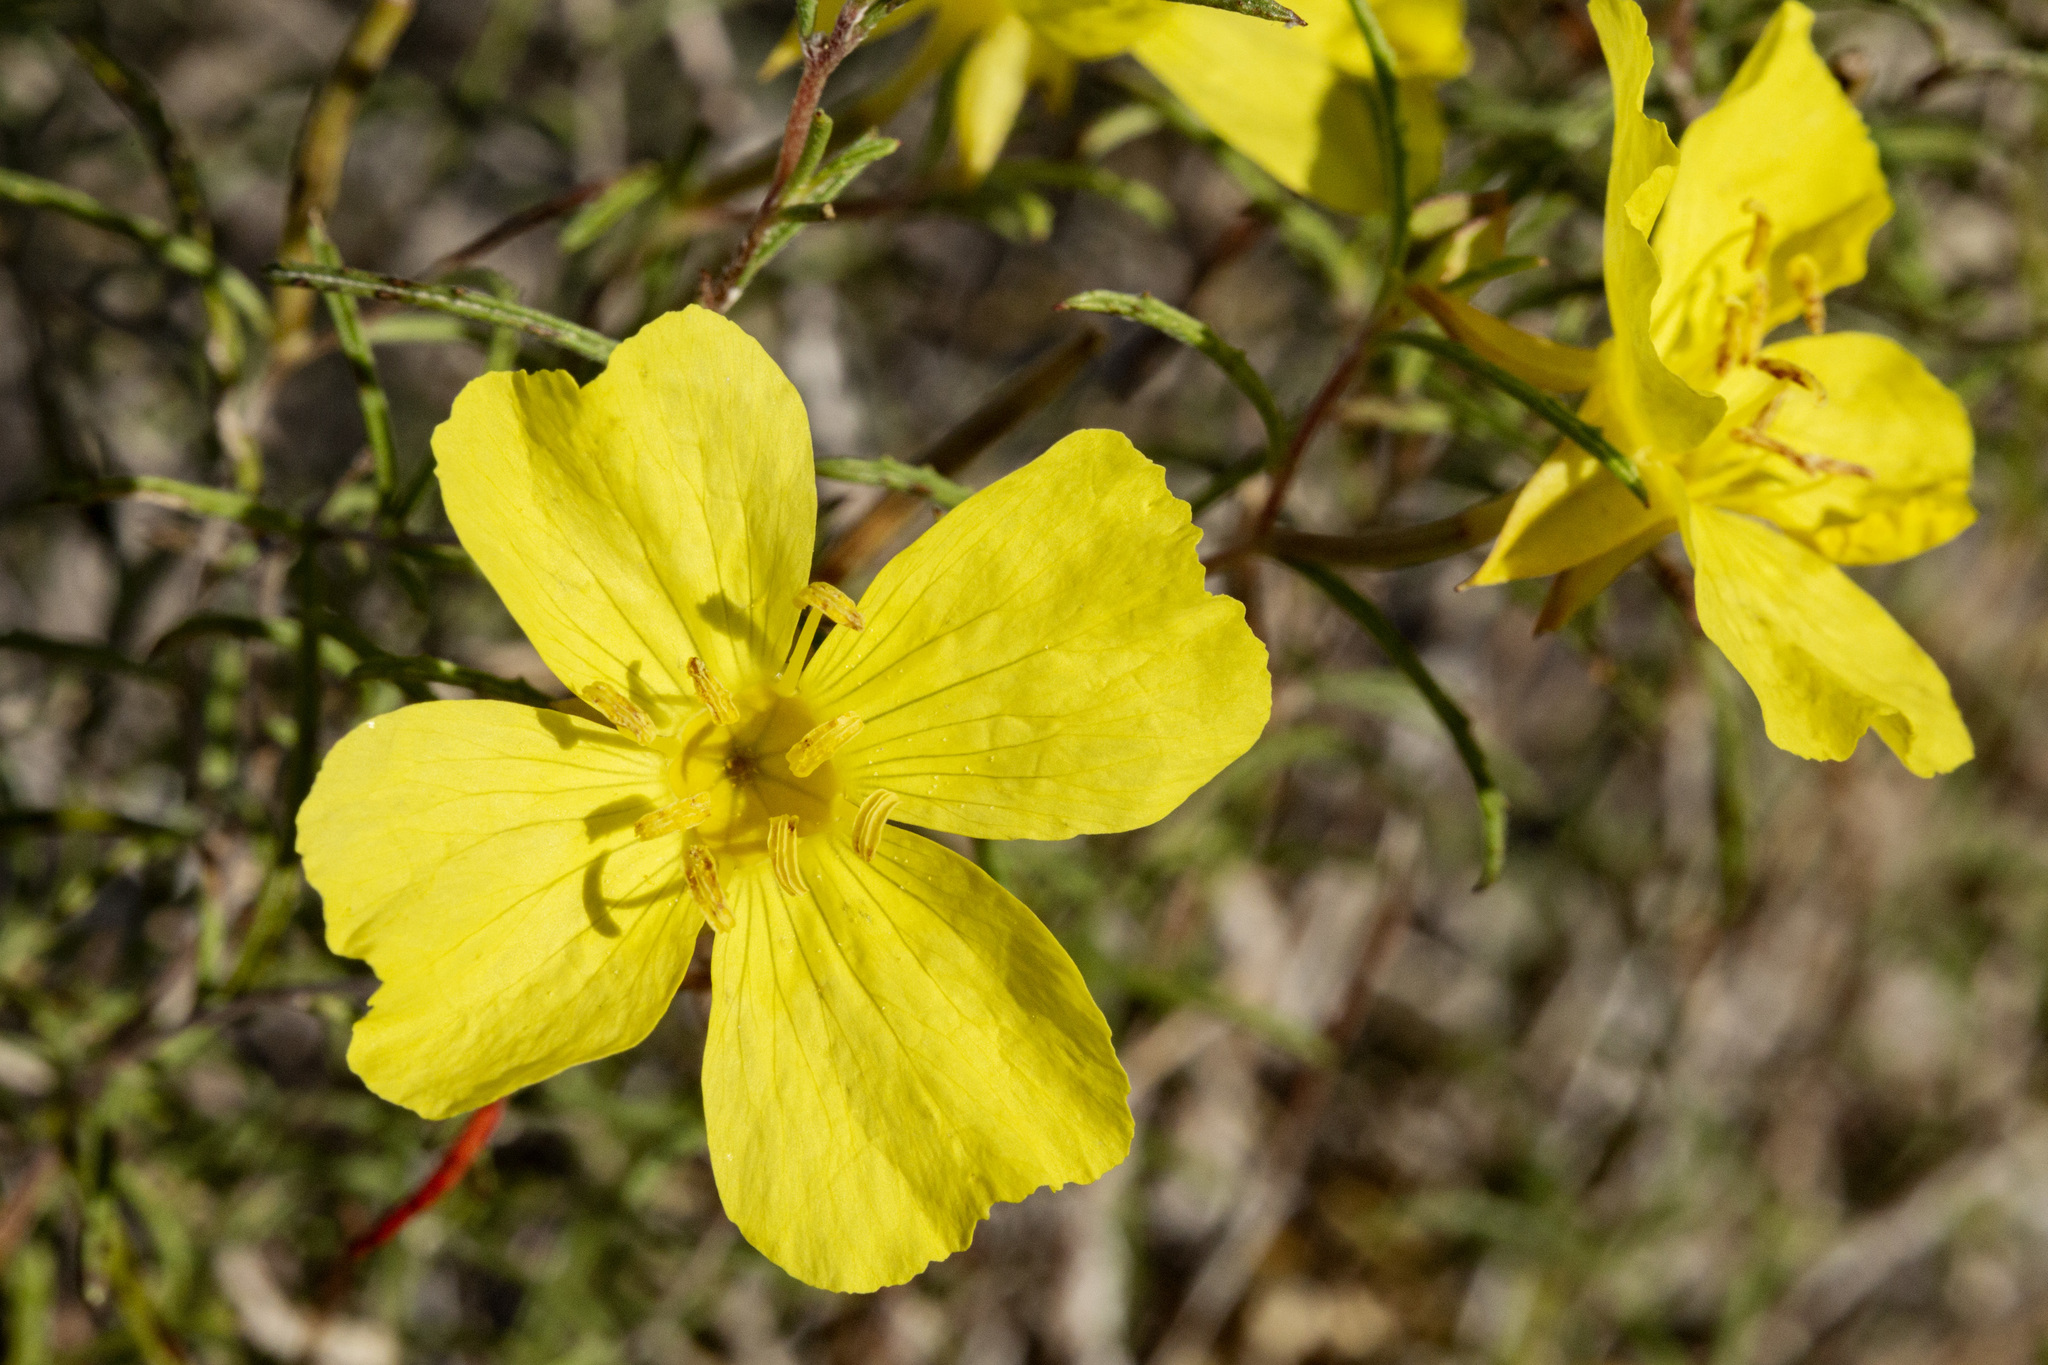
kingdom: Plantae
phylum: Tracheophyta
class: Magnoliopsida
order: Myrtales
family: Onagraceae
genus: Oenothera
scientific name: Oenothera gayleana
